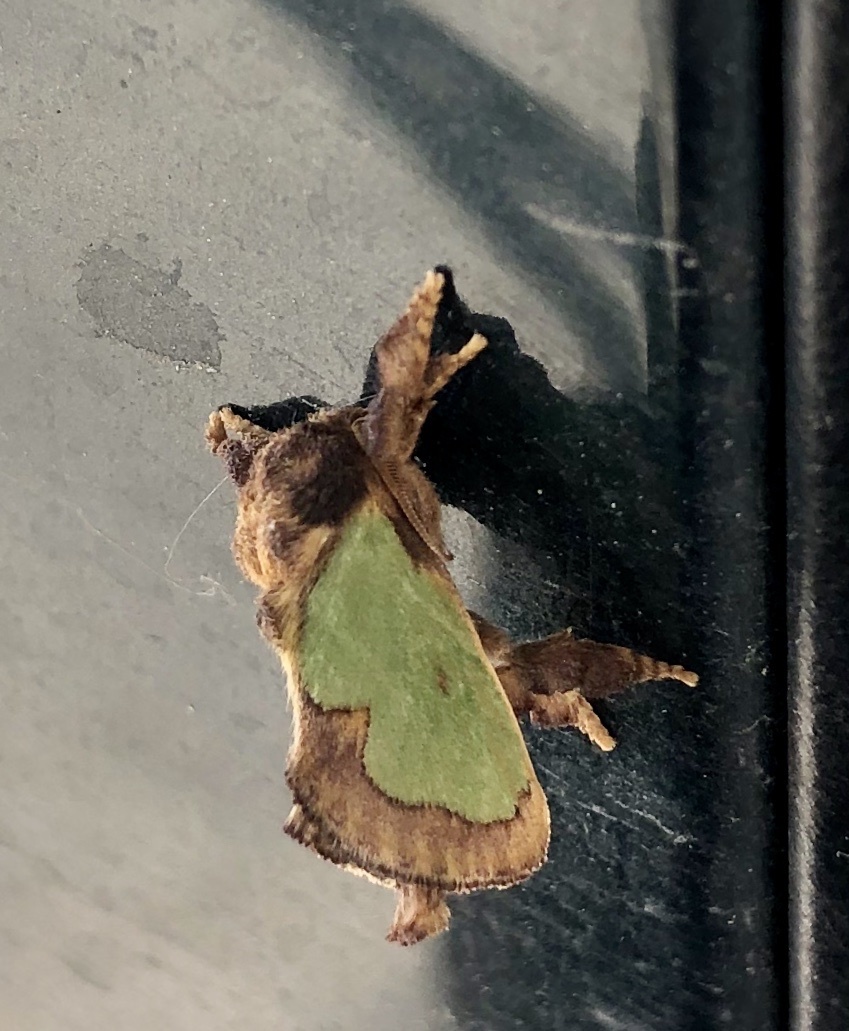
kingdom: Animalia
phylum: Arthropoda
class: Insecta
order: Lepidoptera
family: Limacodidae
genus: Euclea
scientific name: Euclea incisa
